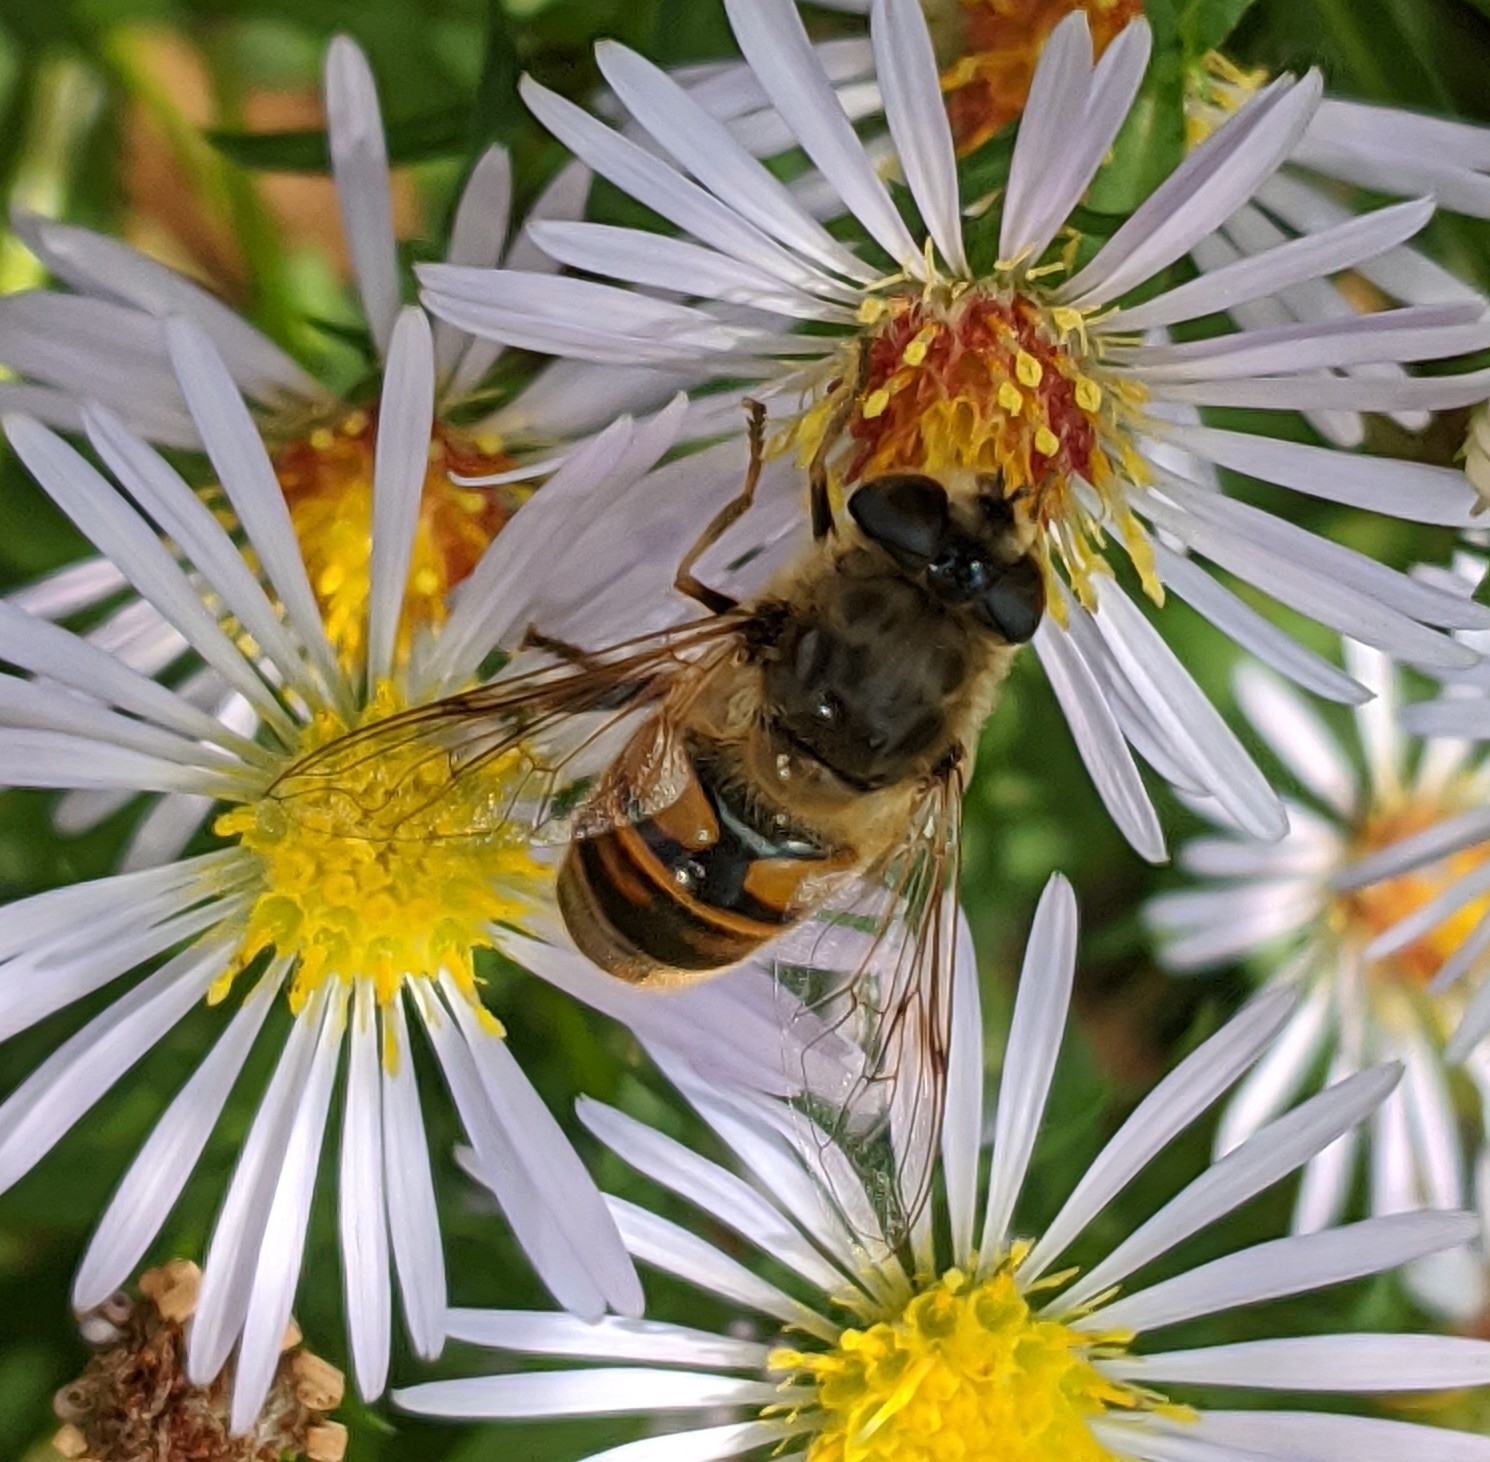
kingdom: Animalia
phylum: Arthropoda
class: Insecta
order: Diptera
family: Syrphidae
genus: Eristalis
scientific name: Eristalis tenax
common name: Drone fly
